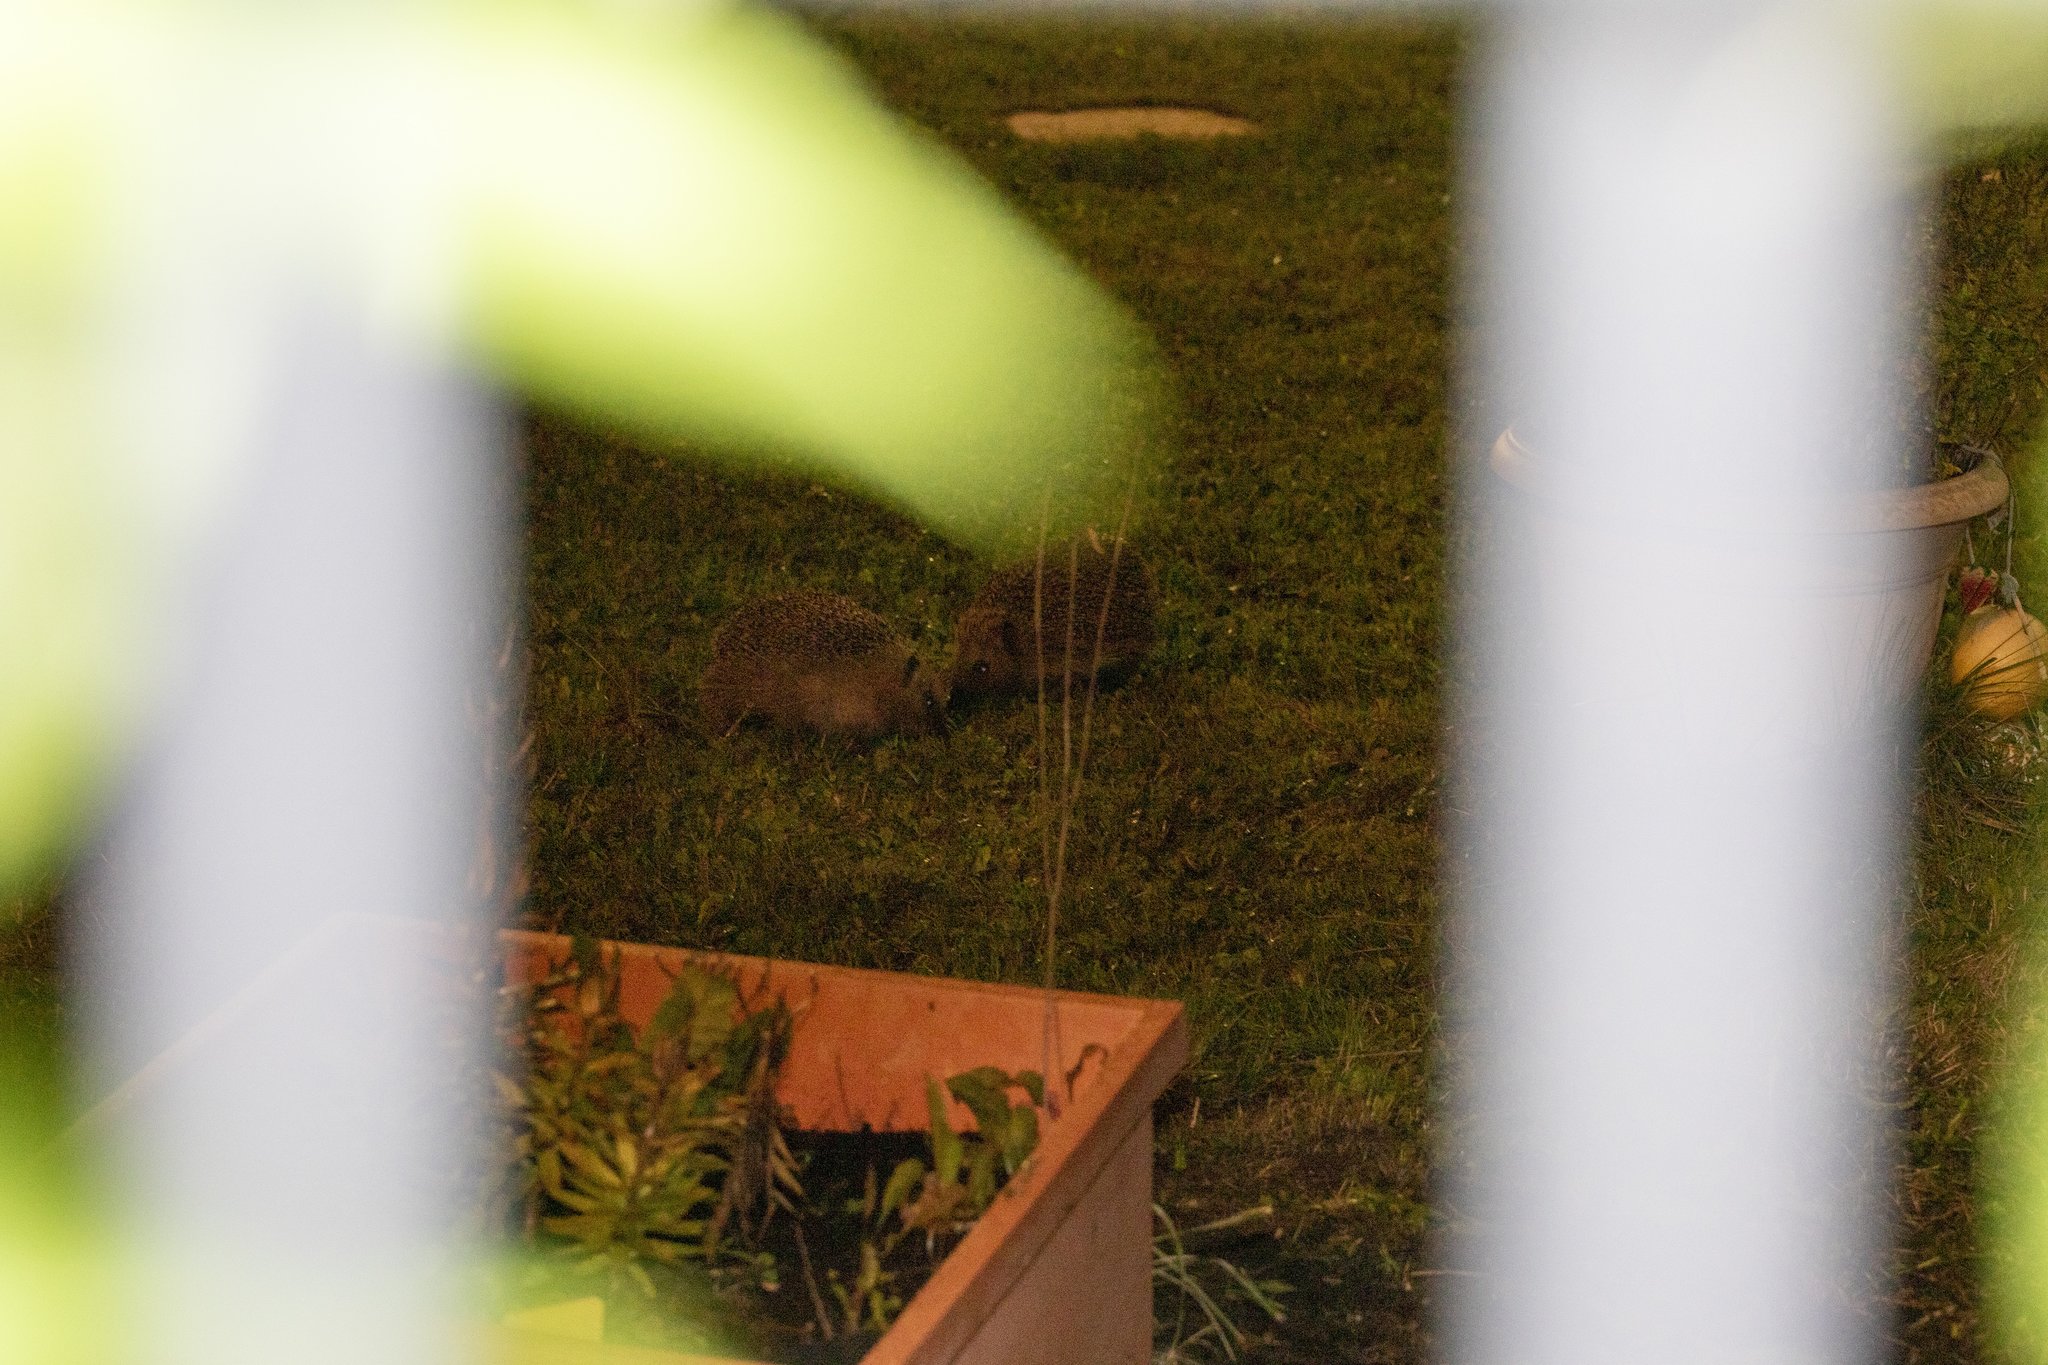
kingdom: Animalia
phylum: Chordata
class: Mammalia
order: Erinaceomorpha
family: Erinaceidae
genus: Erinaceus
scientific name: Erinaceus europaeus
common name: West european hedgehog
